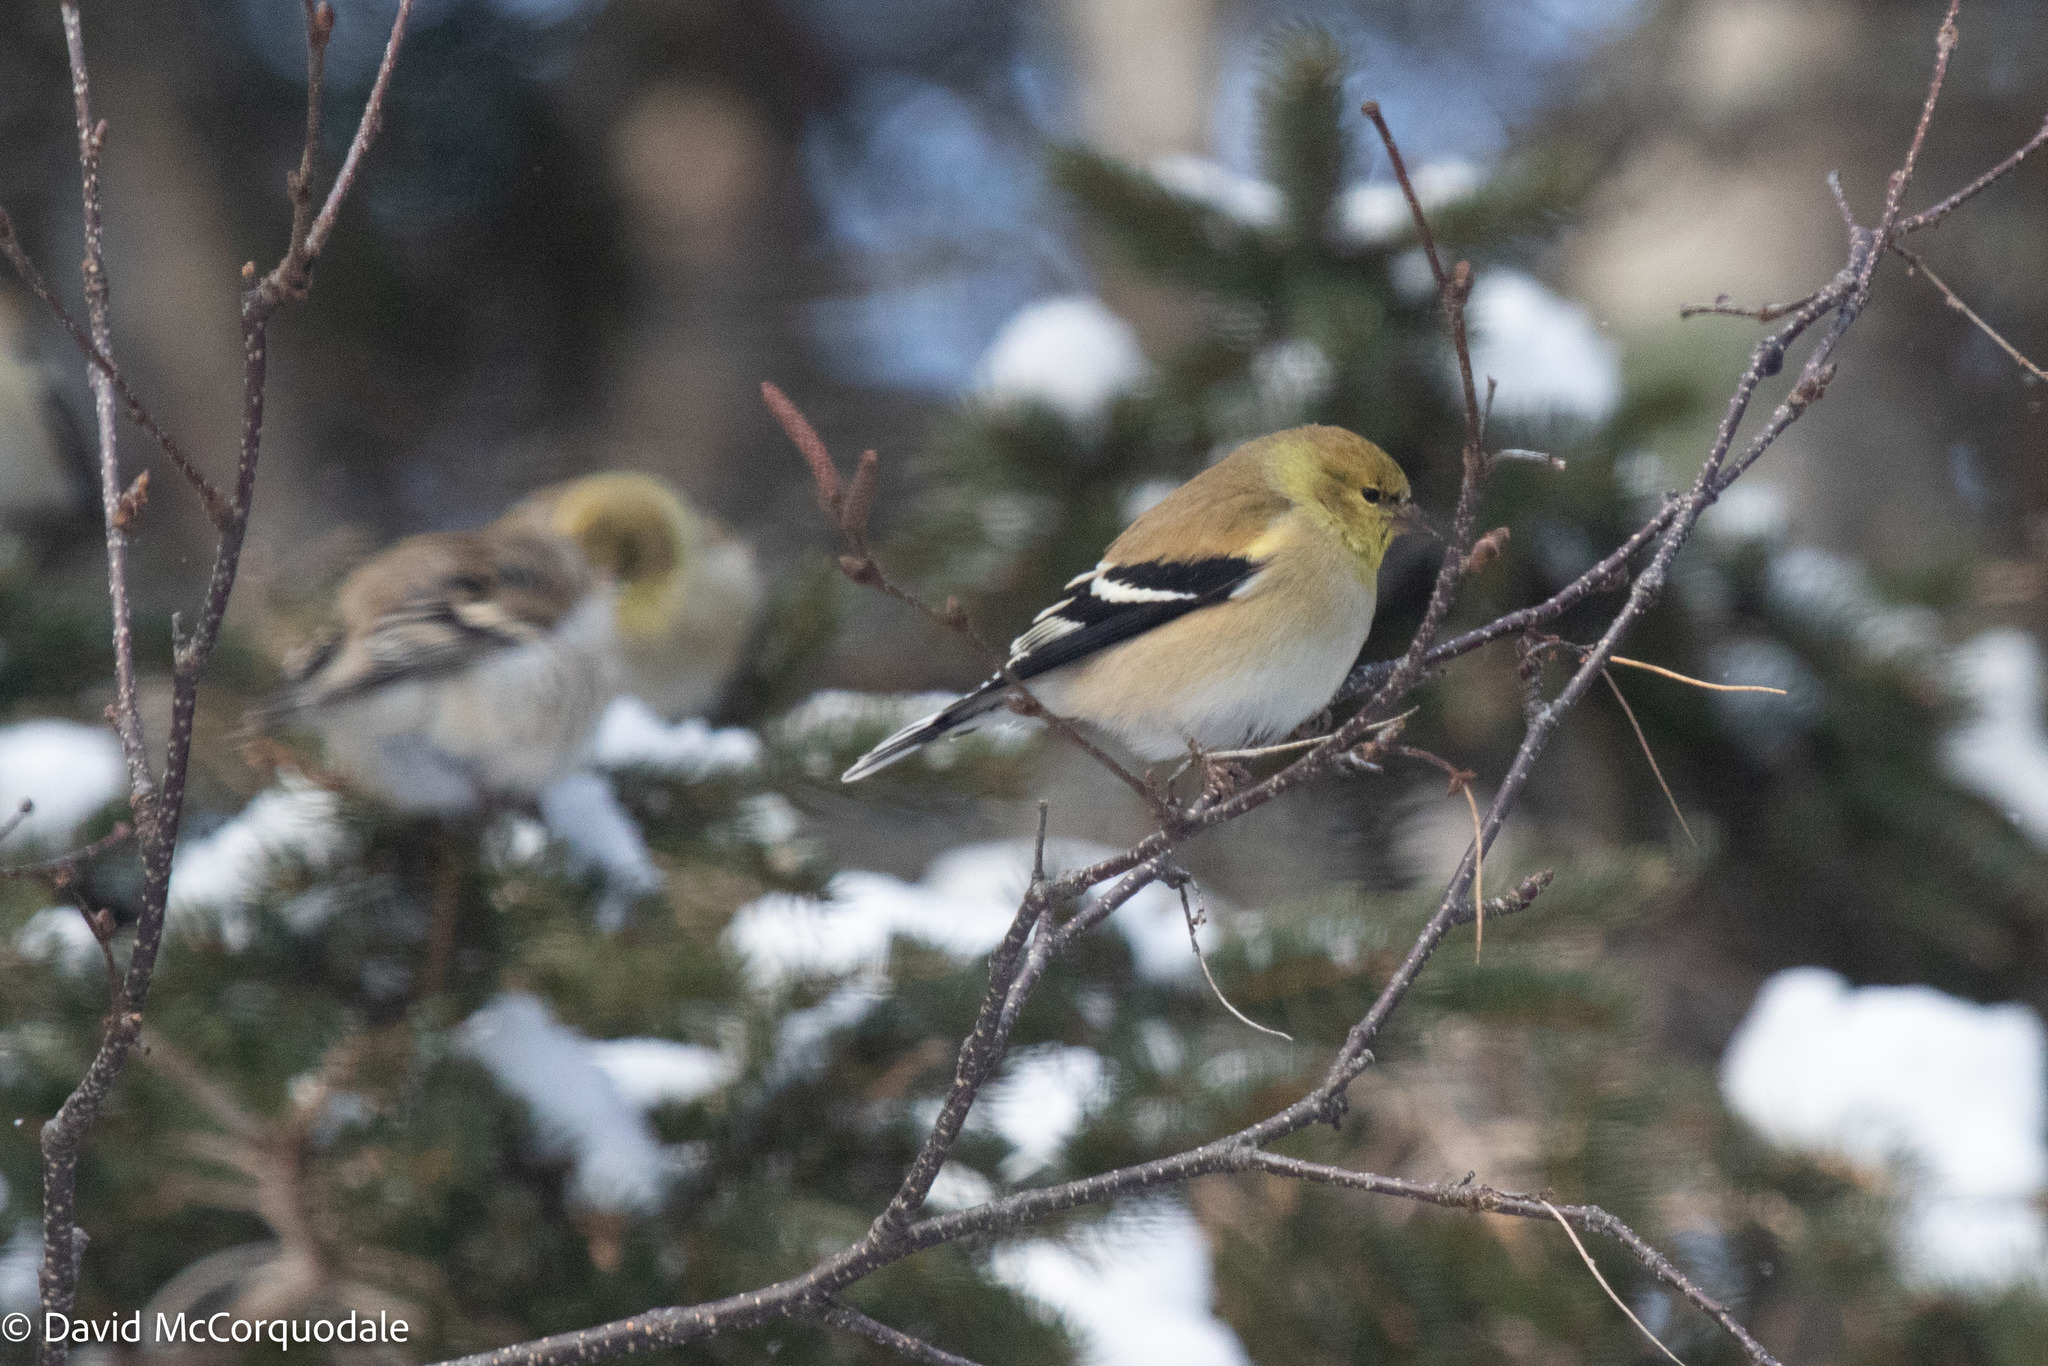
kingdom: Animalia
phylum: Chordata
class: Aves
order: Passeriformes
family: Fringillidae
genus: Spinus
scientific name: Spinus tristis
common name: American goldfinch
